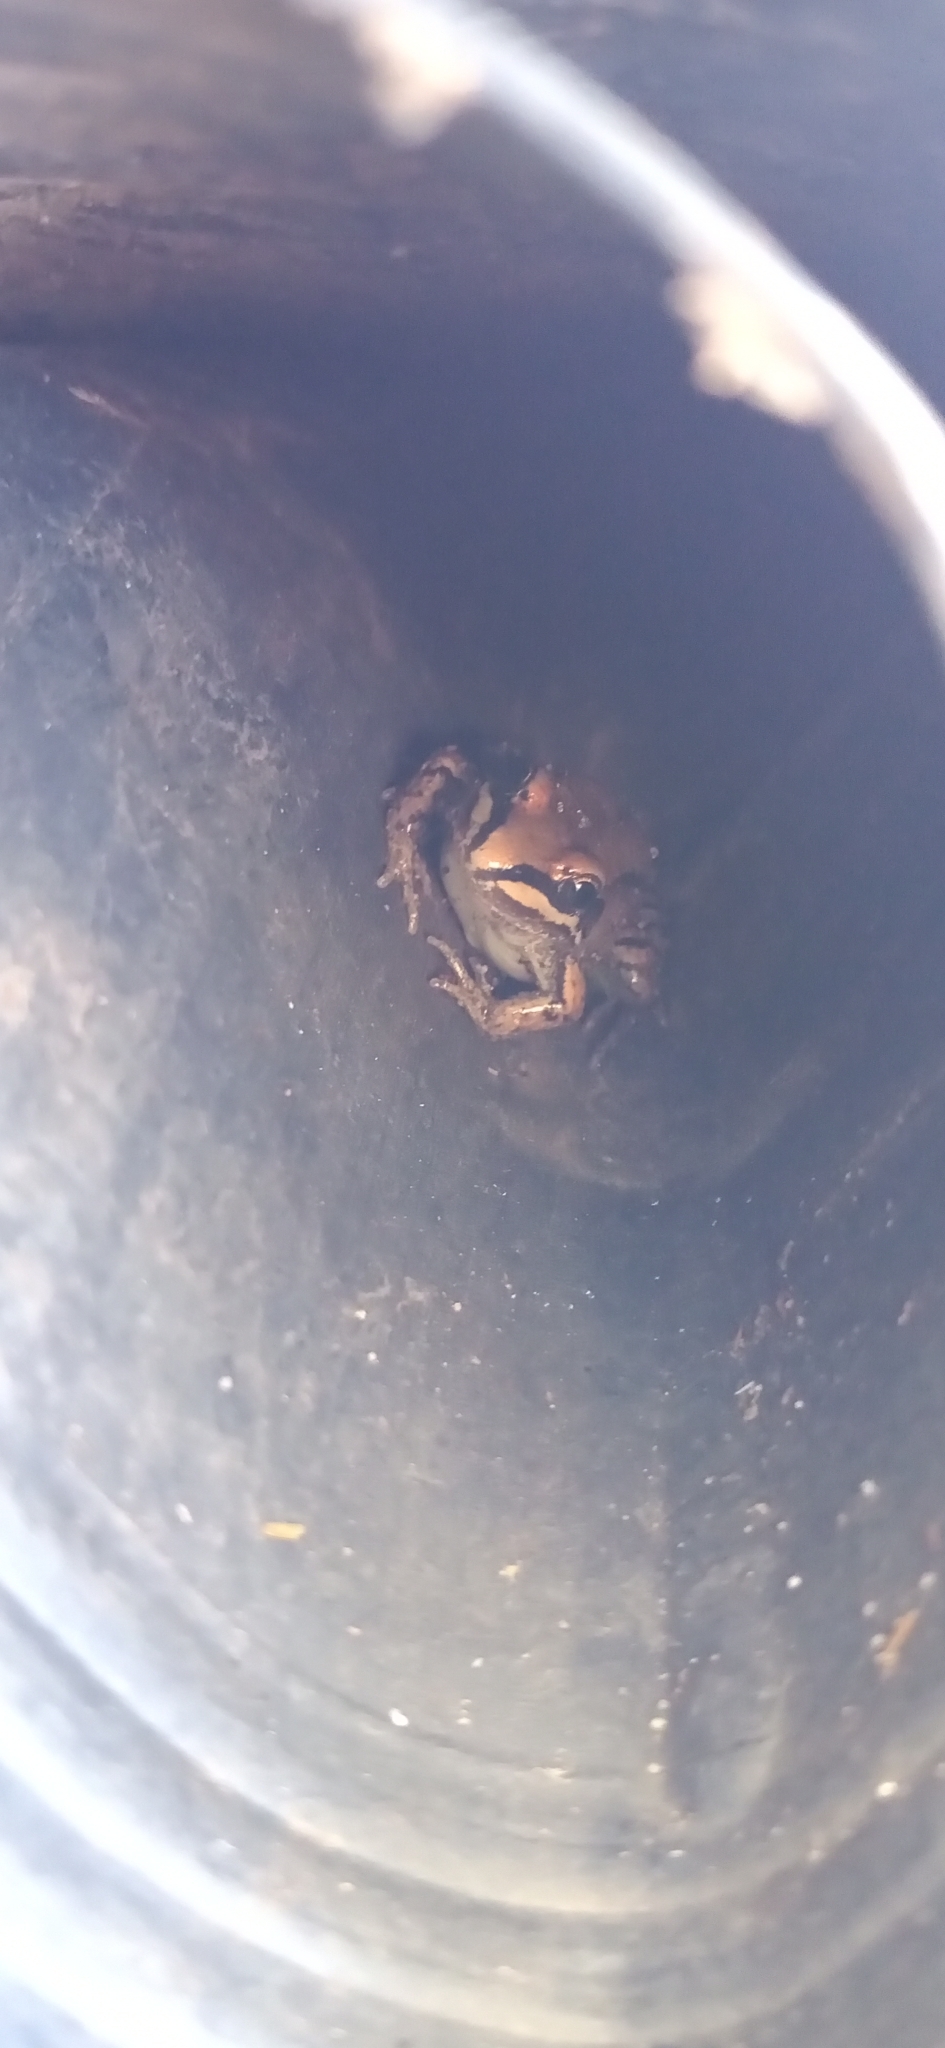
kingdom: Animalia
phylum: Chordata
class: Amphibia
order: Anura
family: Leptodactylidae
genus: Leptodactylus
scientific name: Leptodactylus mystacinus
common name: Moustached frog
